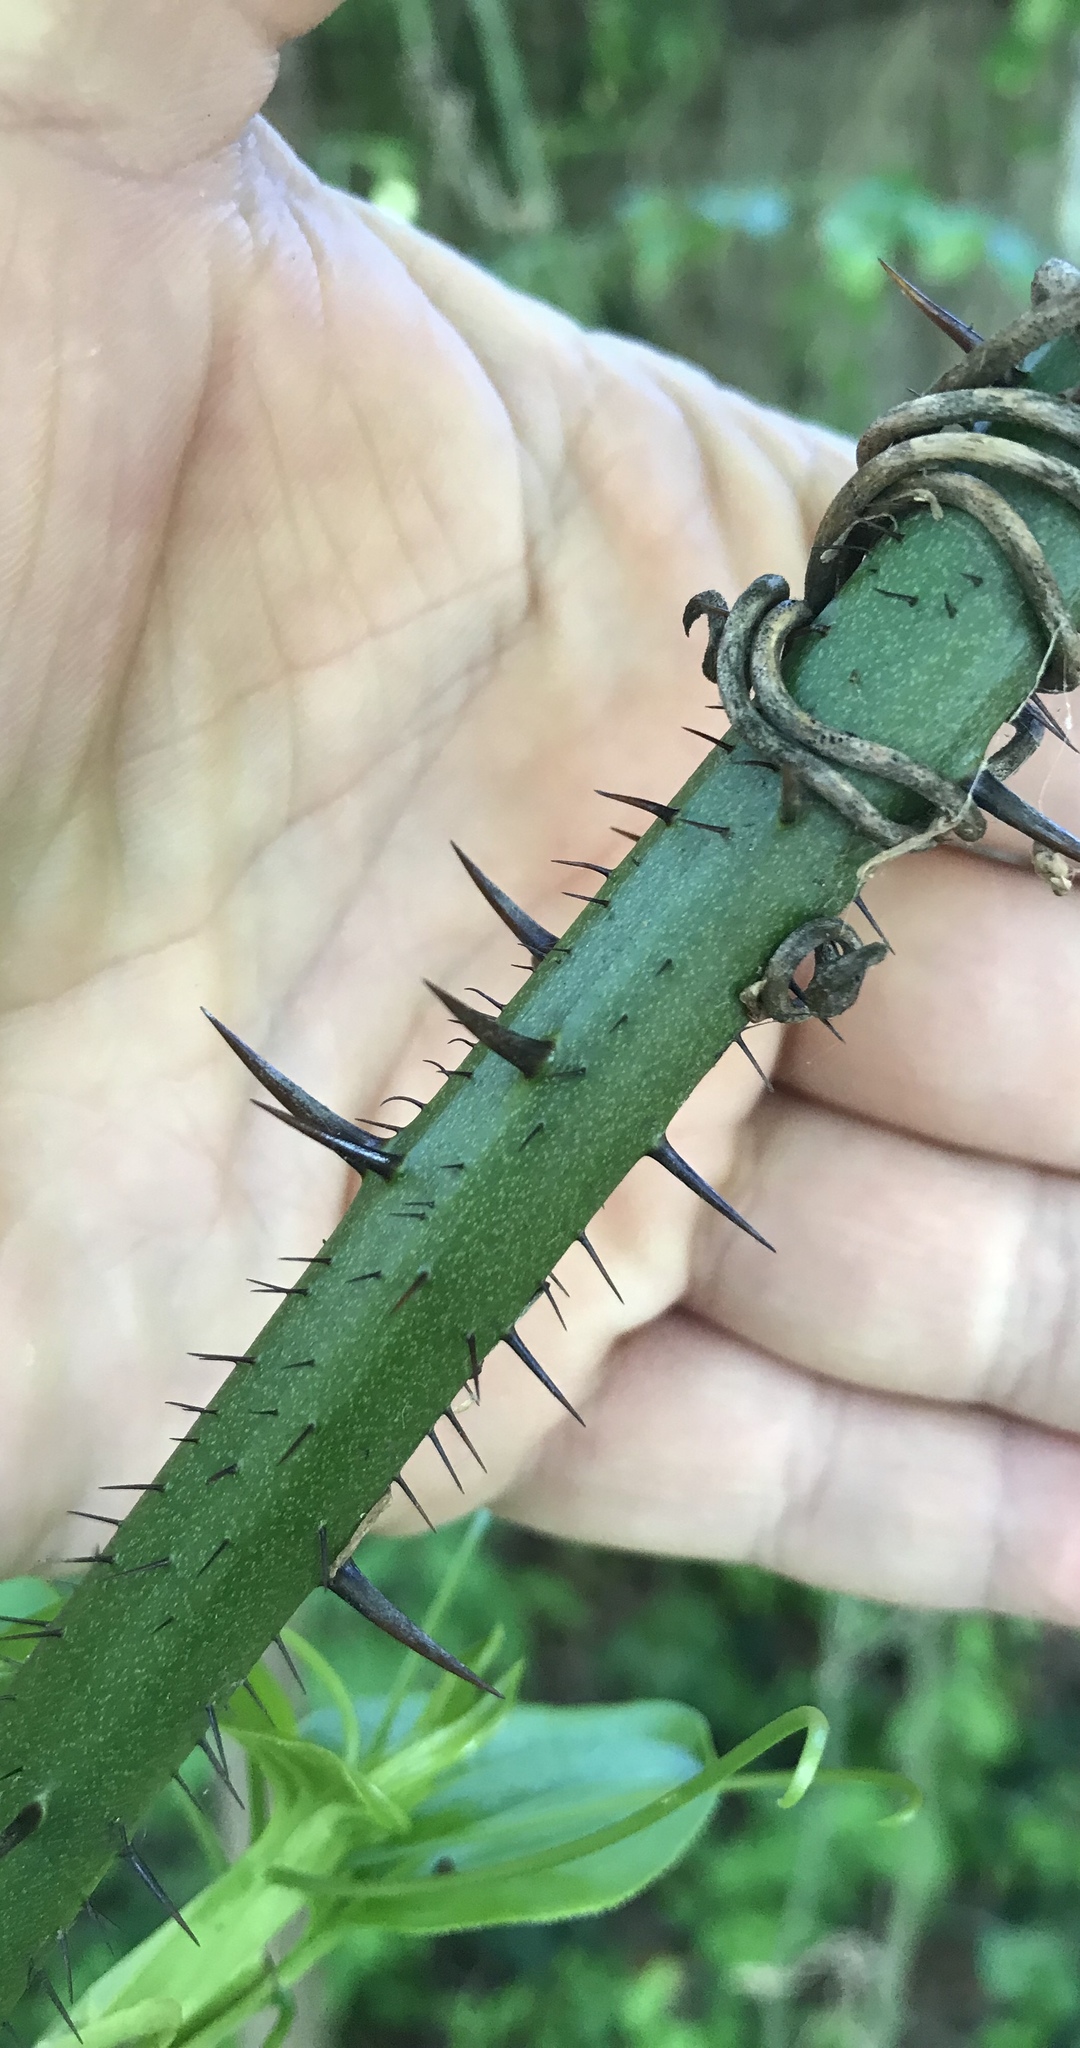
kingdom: Plantae
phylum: Tracheophyta
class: Liliopsida
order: Liliales
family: Smilacaceae
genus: Smilax
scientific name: Smilax tamnoides
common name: Hellfetter
